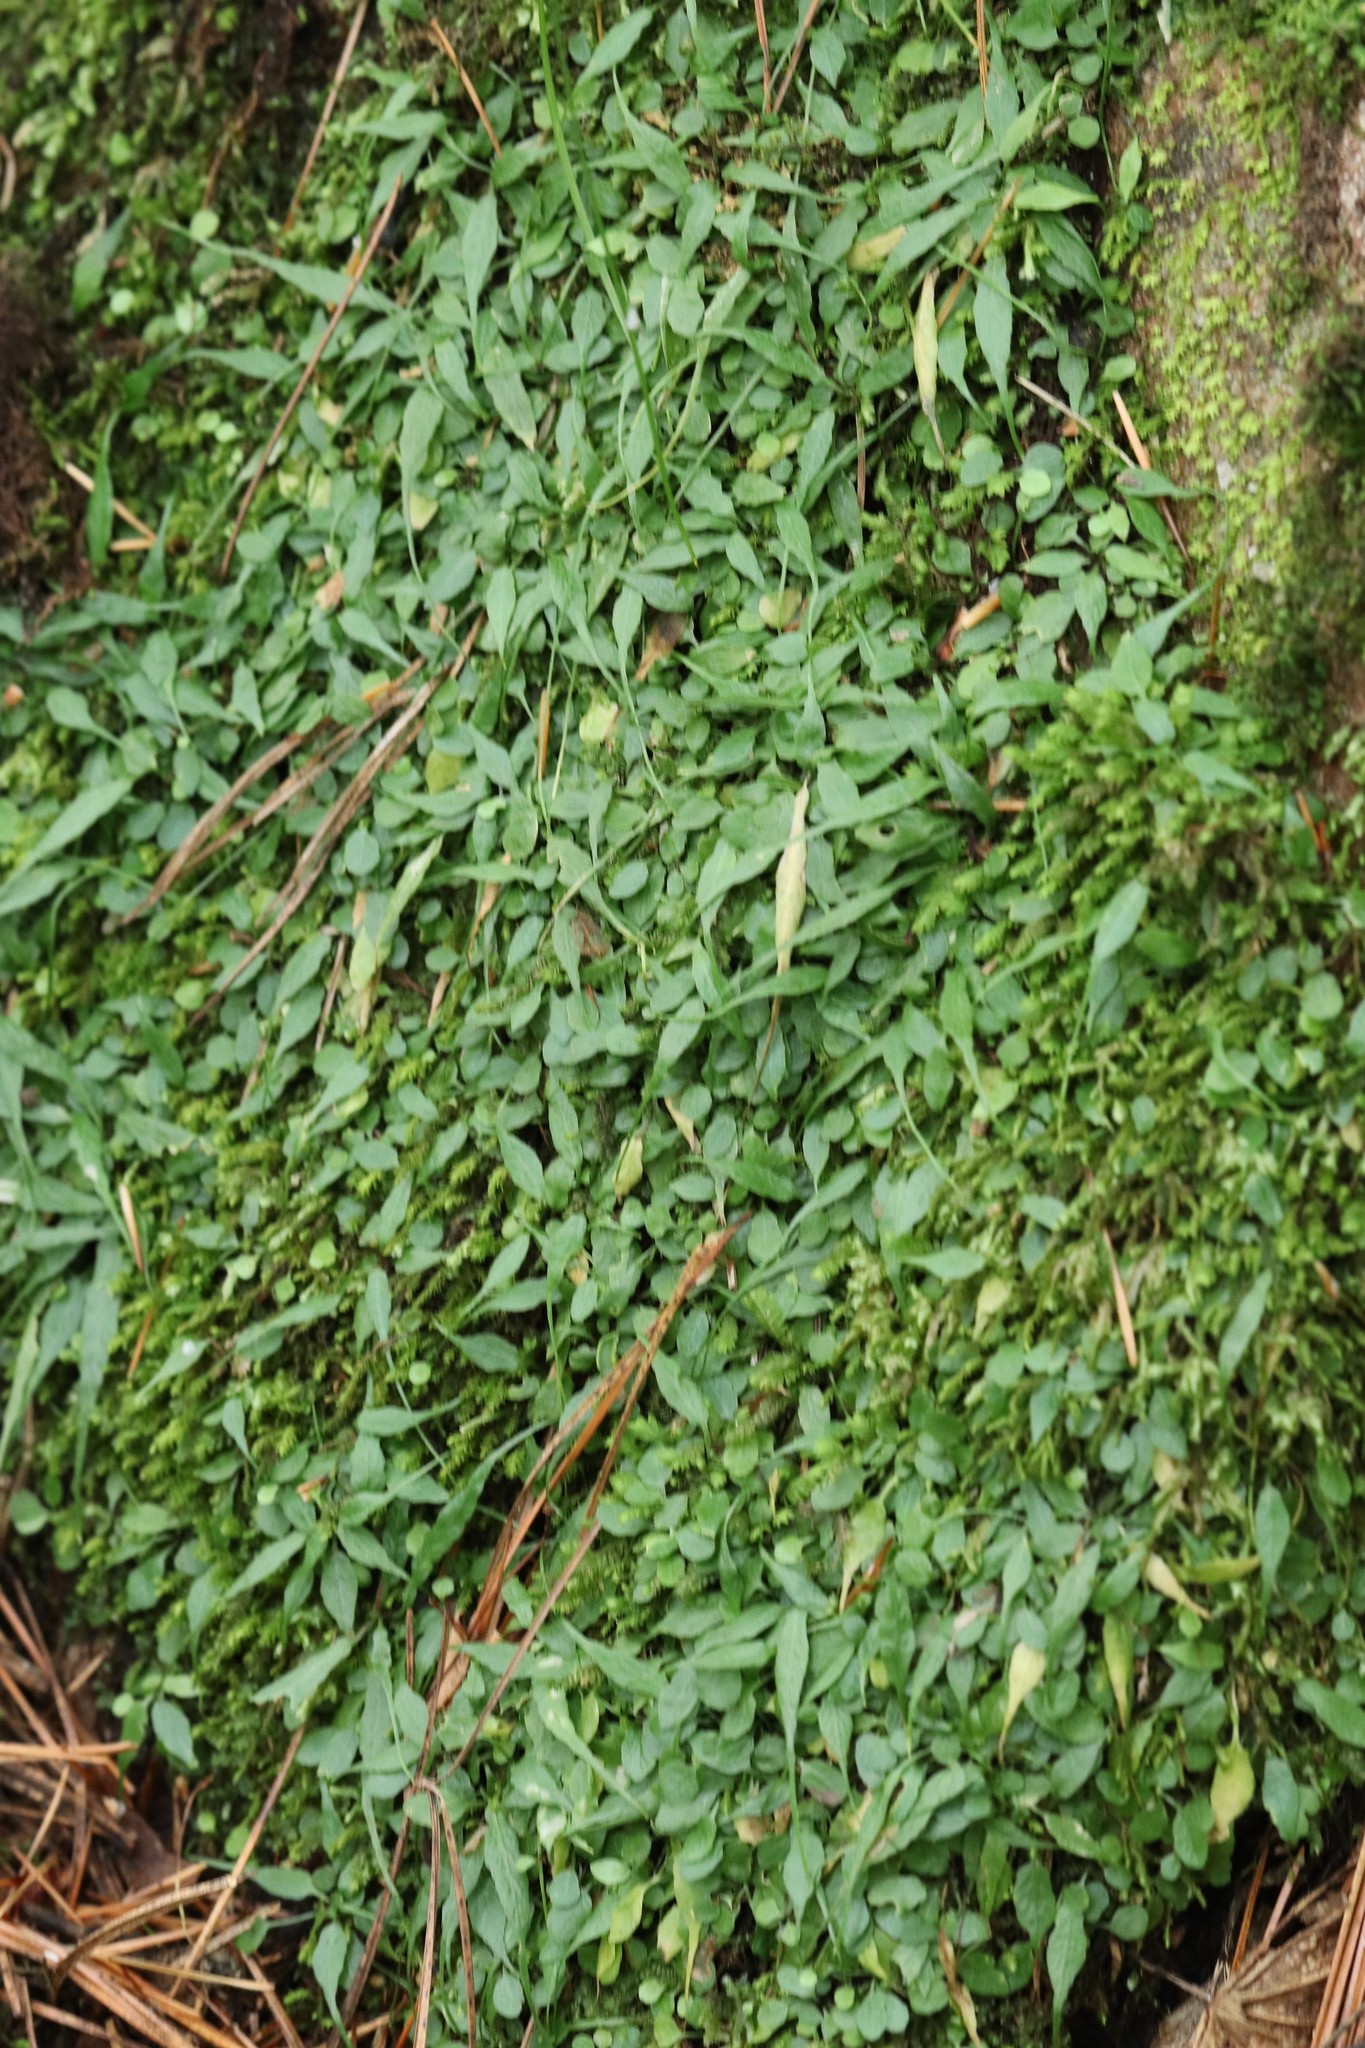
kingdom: Plantae
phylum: Tracheophyta
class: Polypodiopsida
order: Polypodiales
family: Aspleniaceae
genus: Asplenium
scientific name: Asplenium ruprechtii
